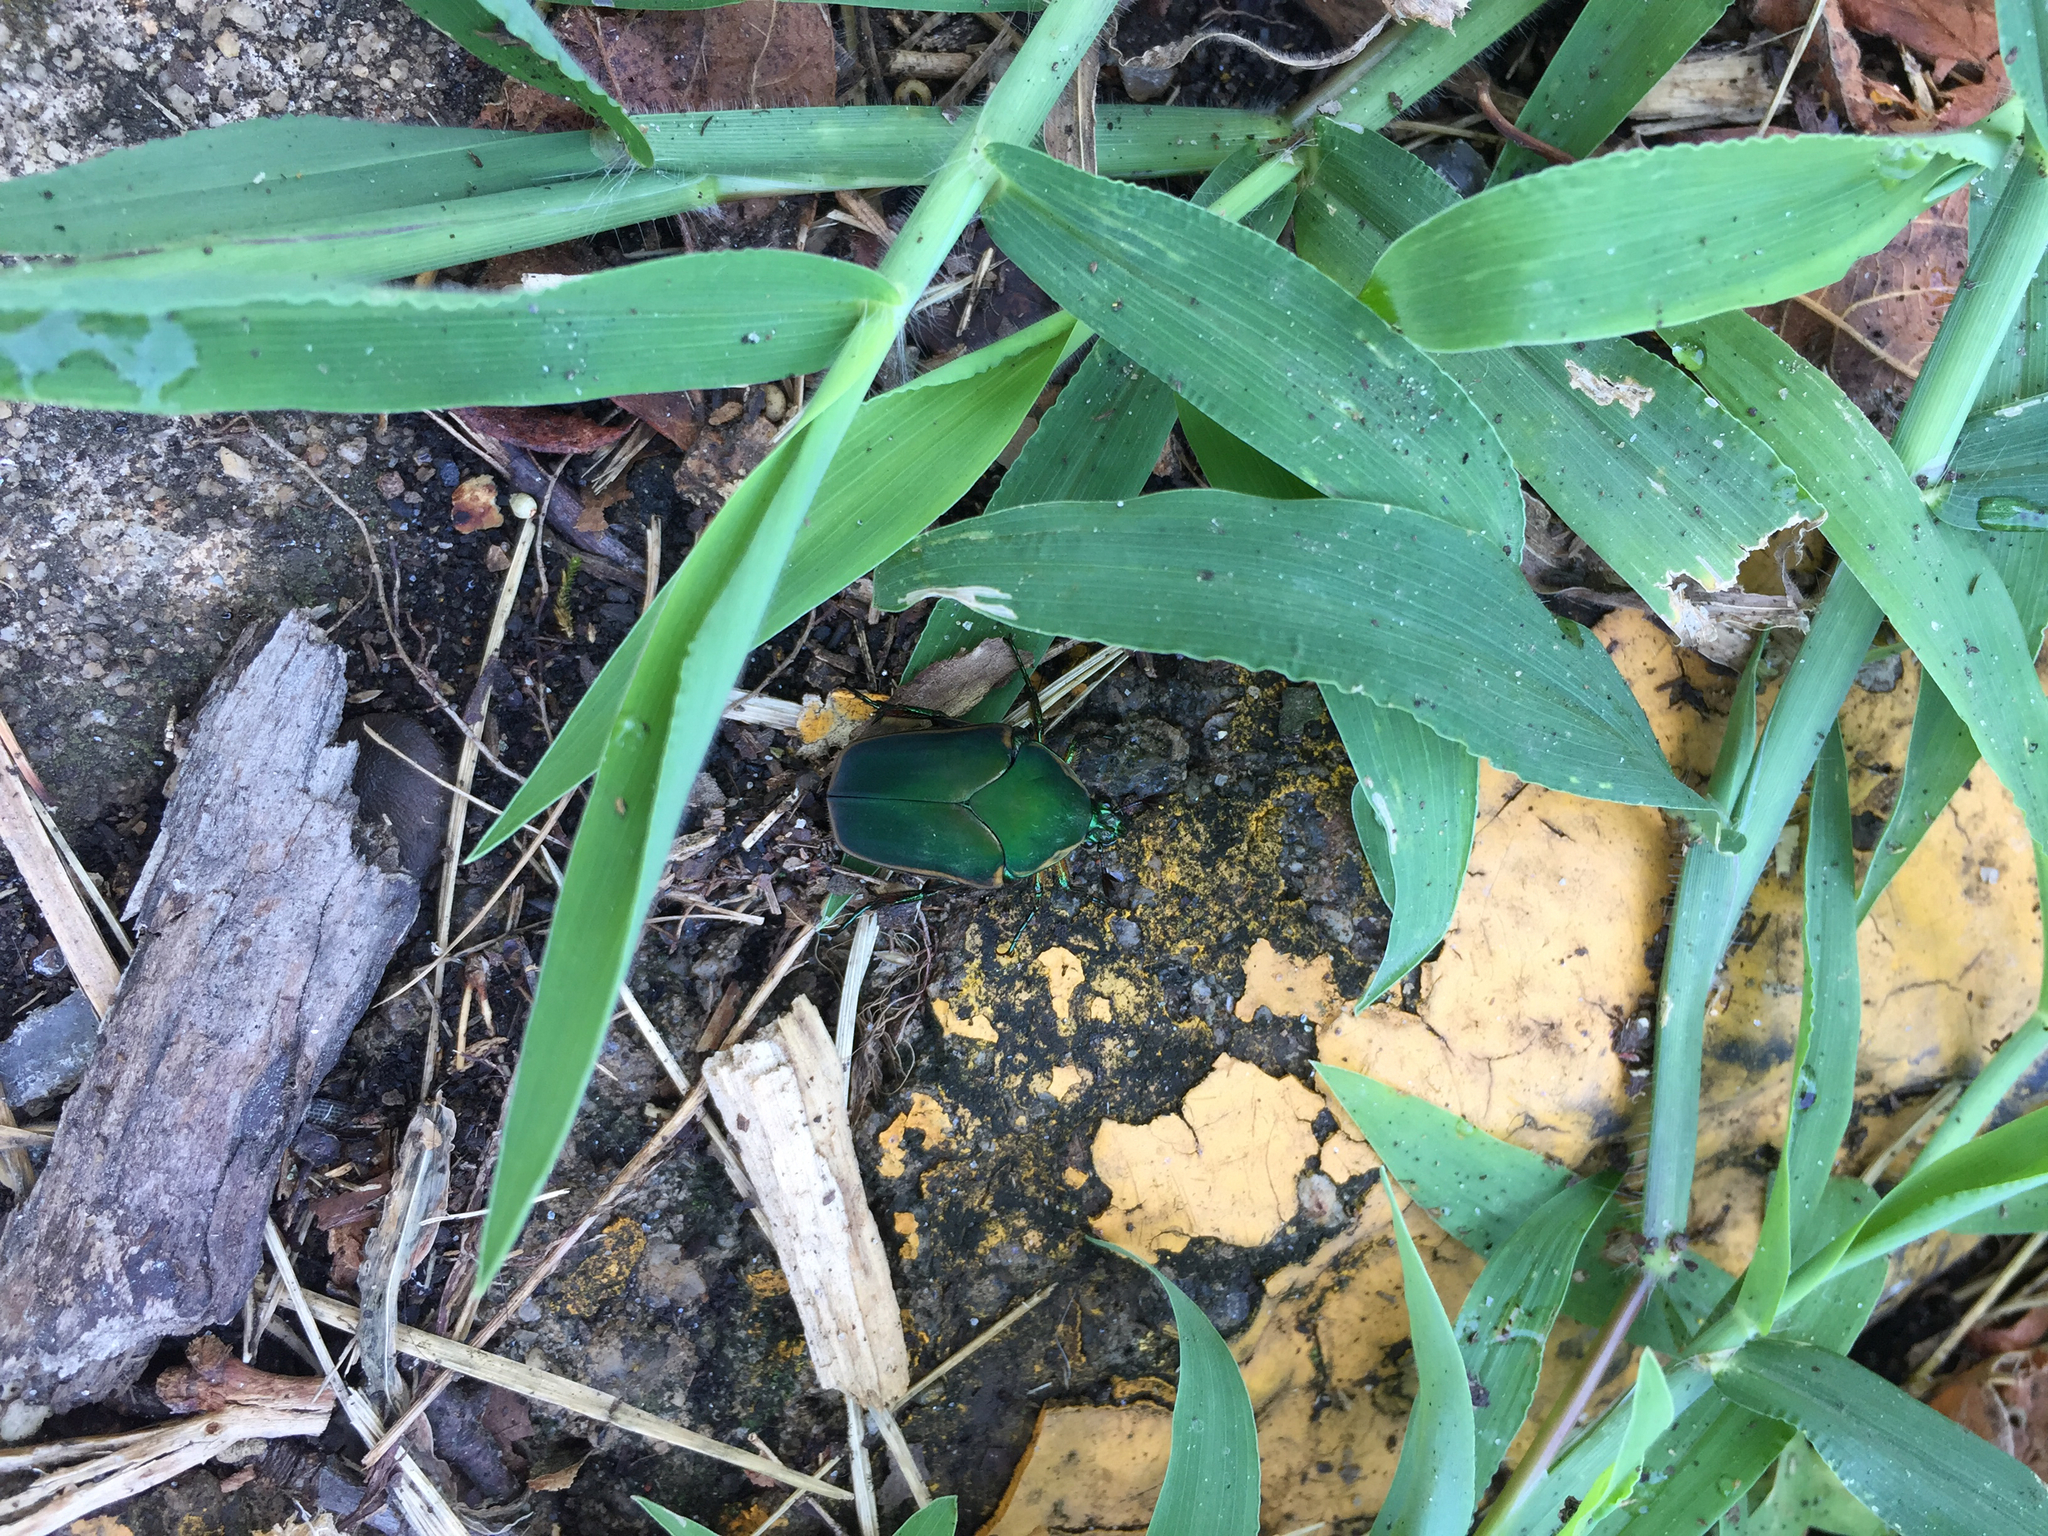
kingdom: Animalia
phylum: Arthropoda
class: Insecta
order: Coleoptera
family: Scarabaeidae
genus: Cotinis
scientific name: Cotinis nitida
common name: Common green june beetle
